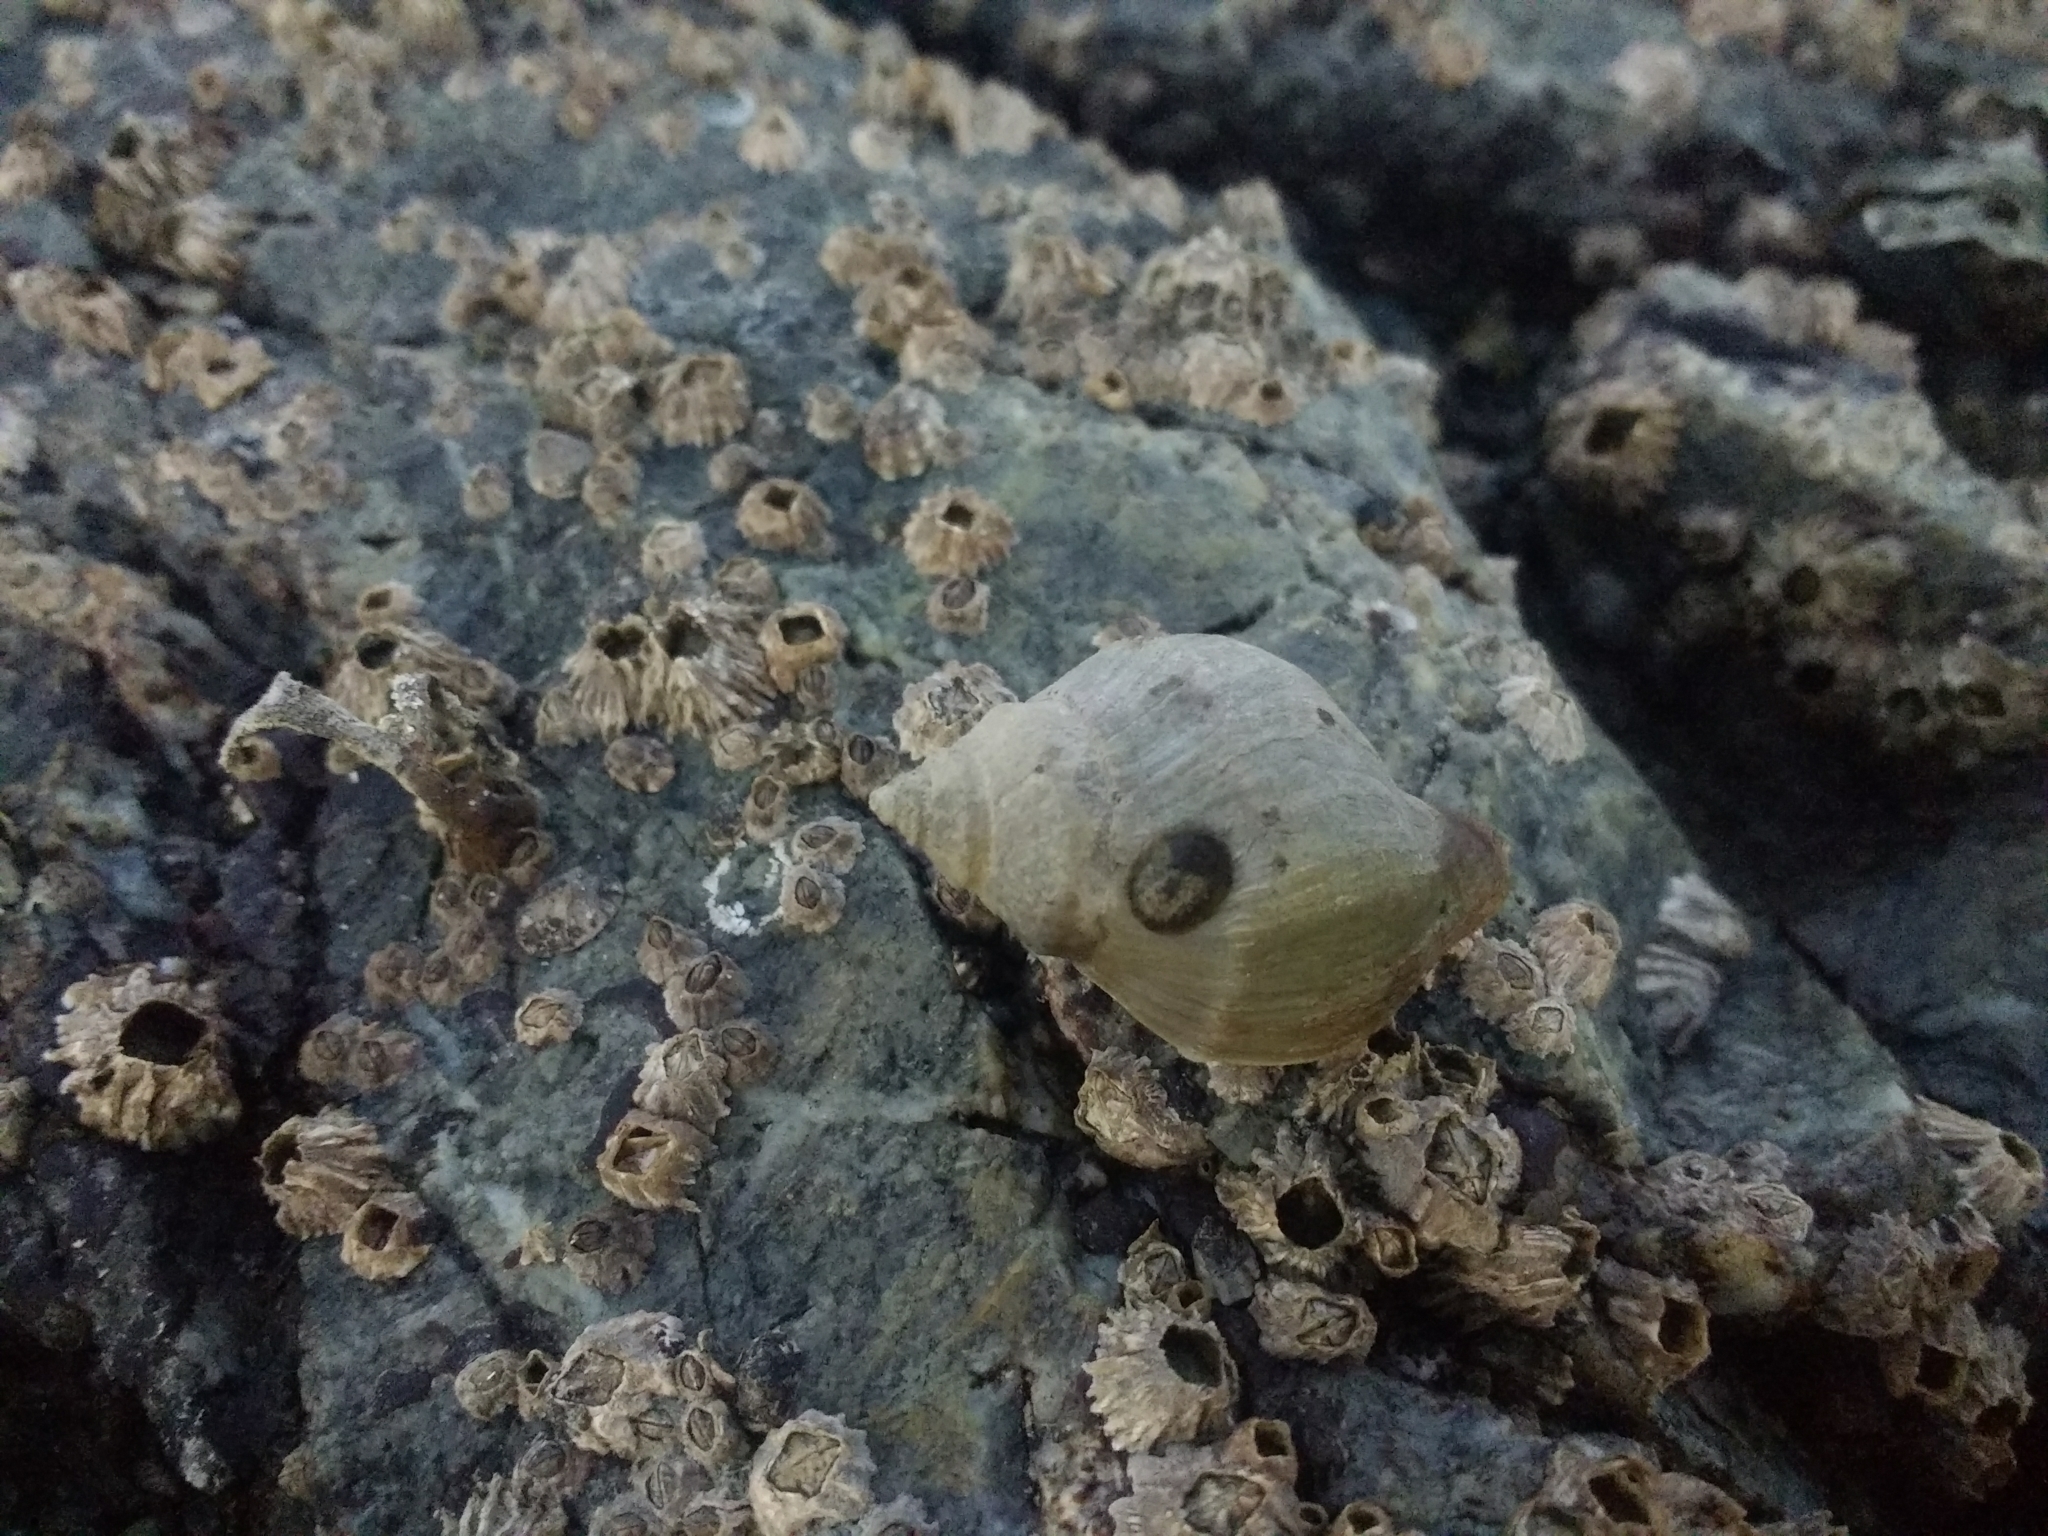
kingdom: Animalia
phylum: Mollusca
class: Gastropoda
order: Neogastropoda
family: Muricidae
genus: Nucella
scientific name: Nucella lamellosa
